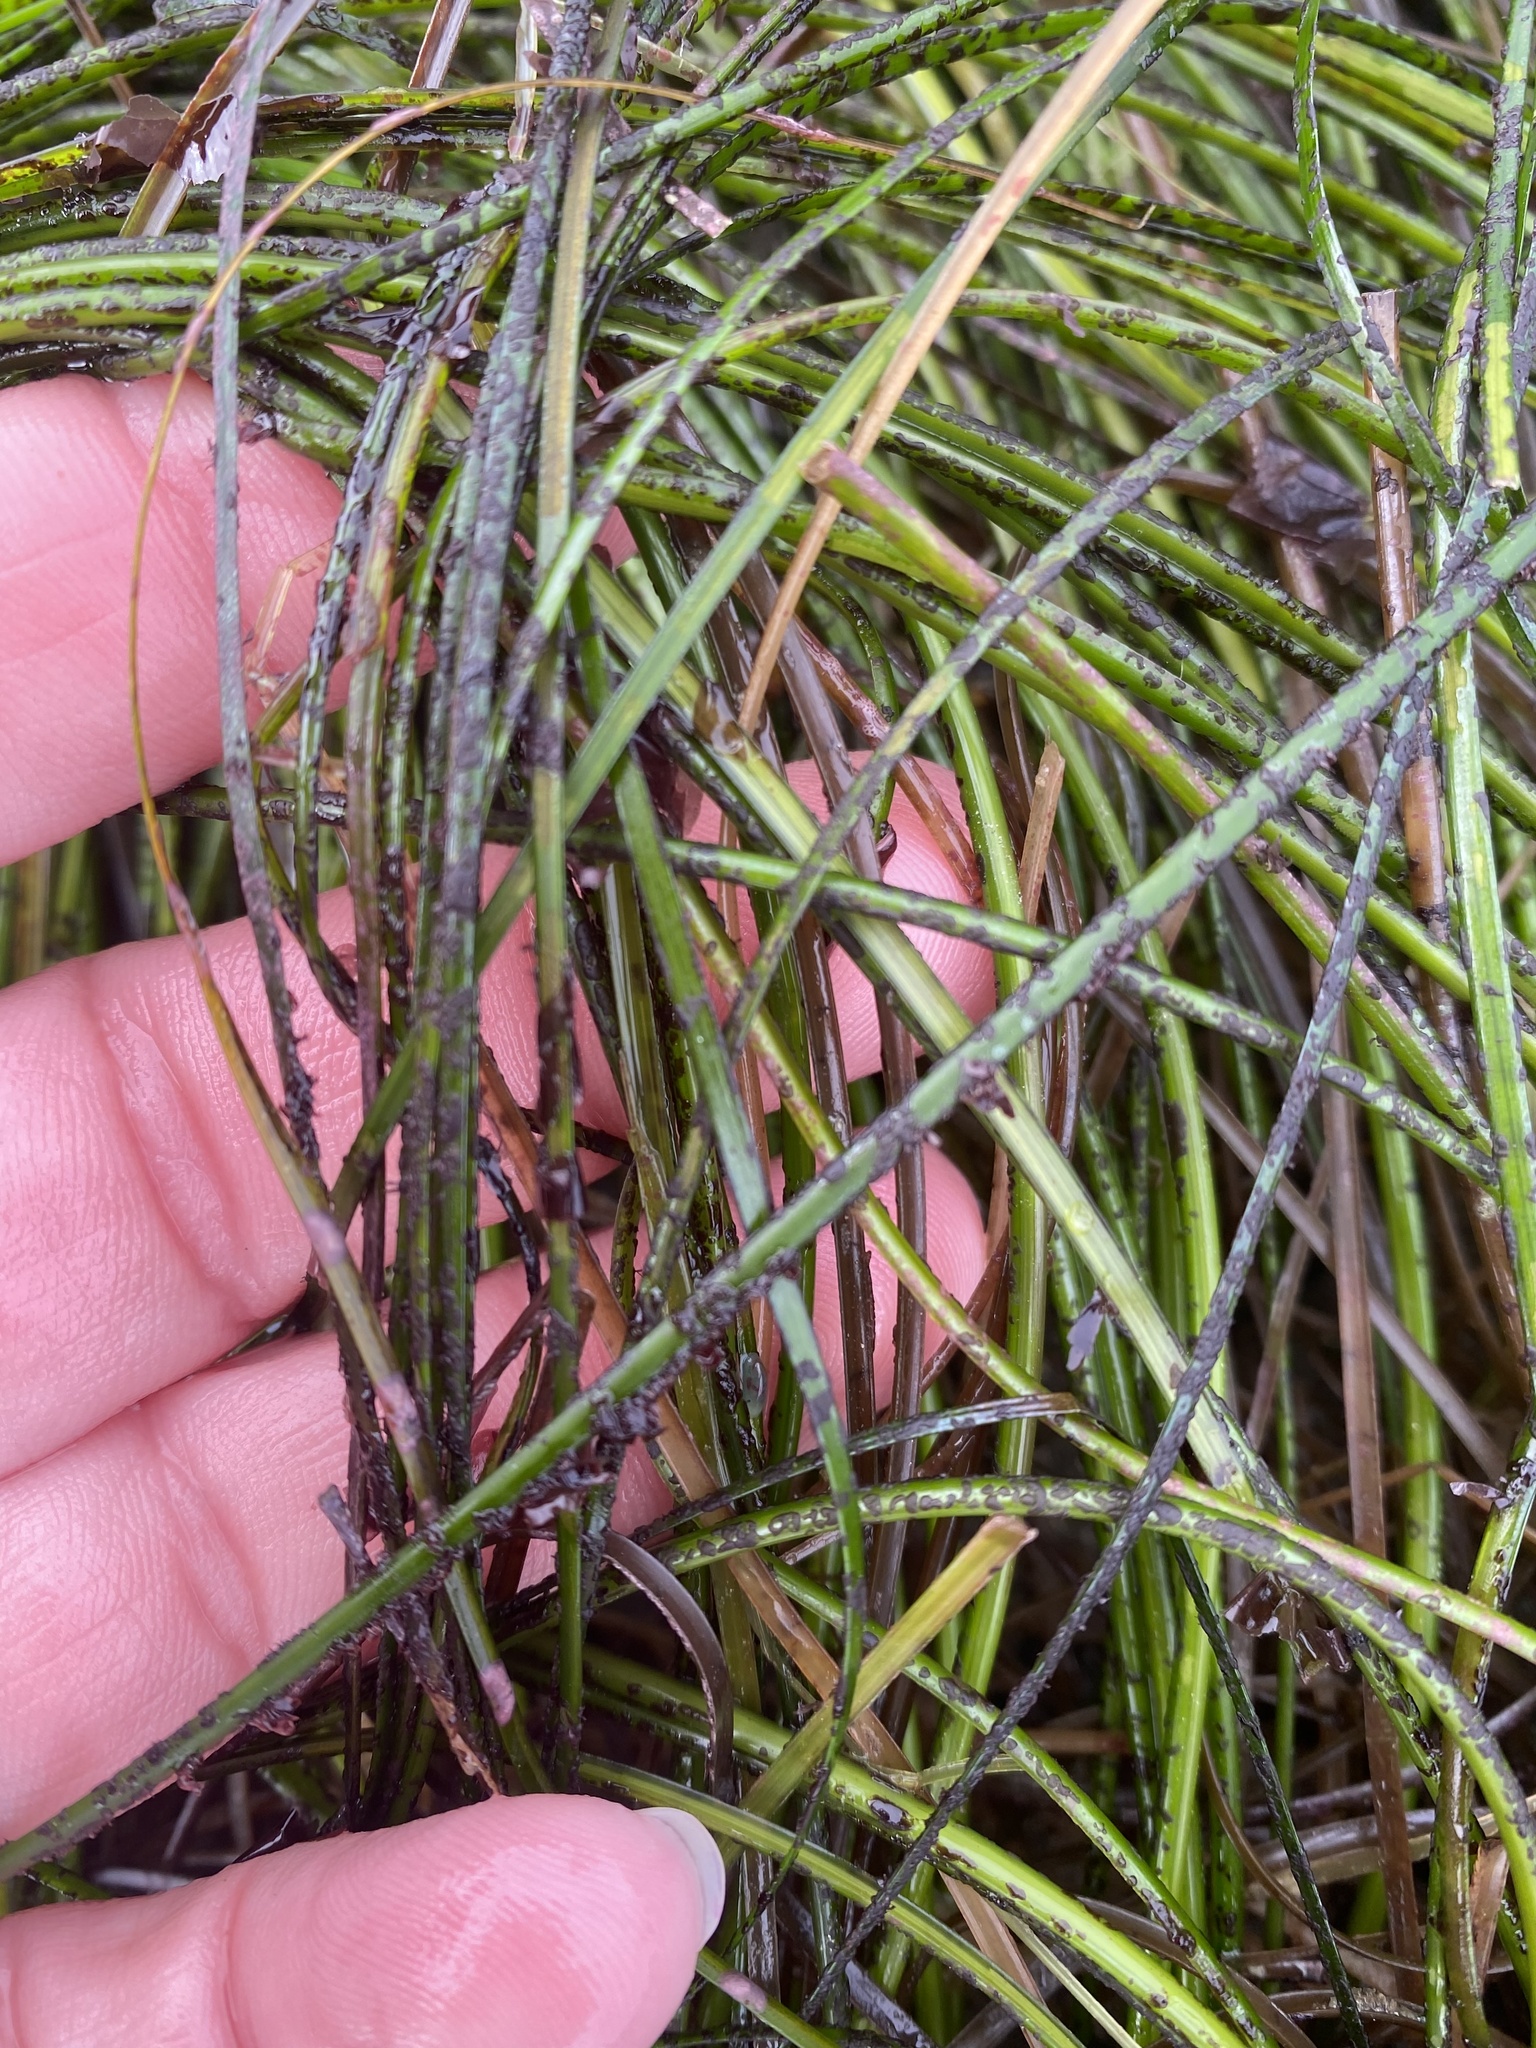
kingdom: Plantae
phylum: Tracheophyta
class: Liliopsida
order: Alismatales
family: Zosteraceae
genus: Phyllospadix
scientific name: Phyllospadix scouleri
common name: Species code: ps
